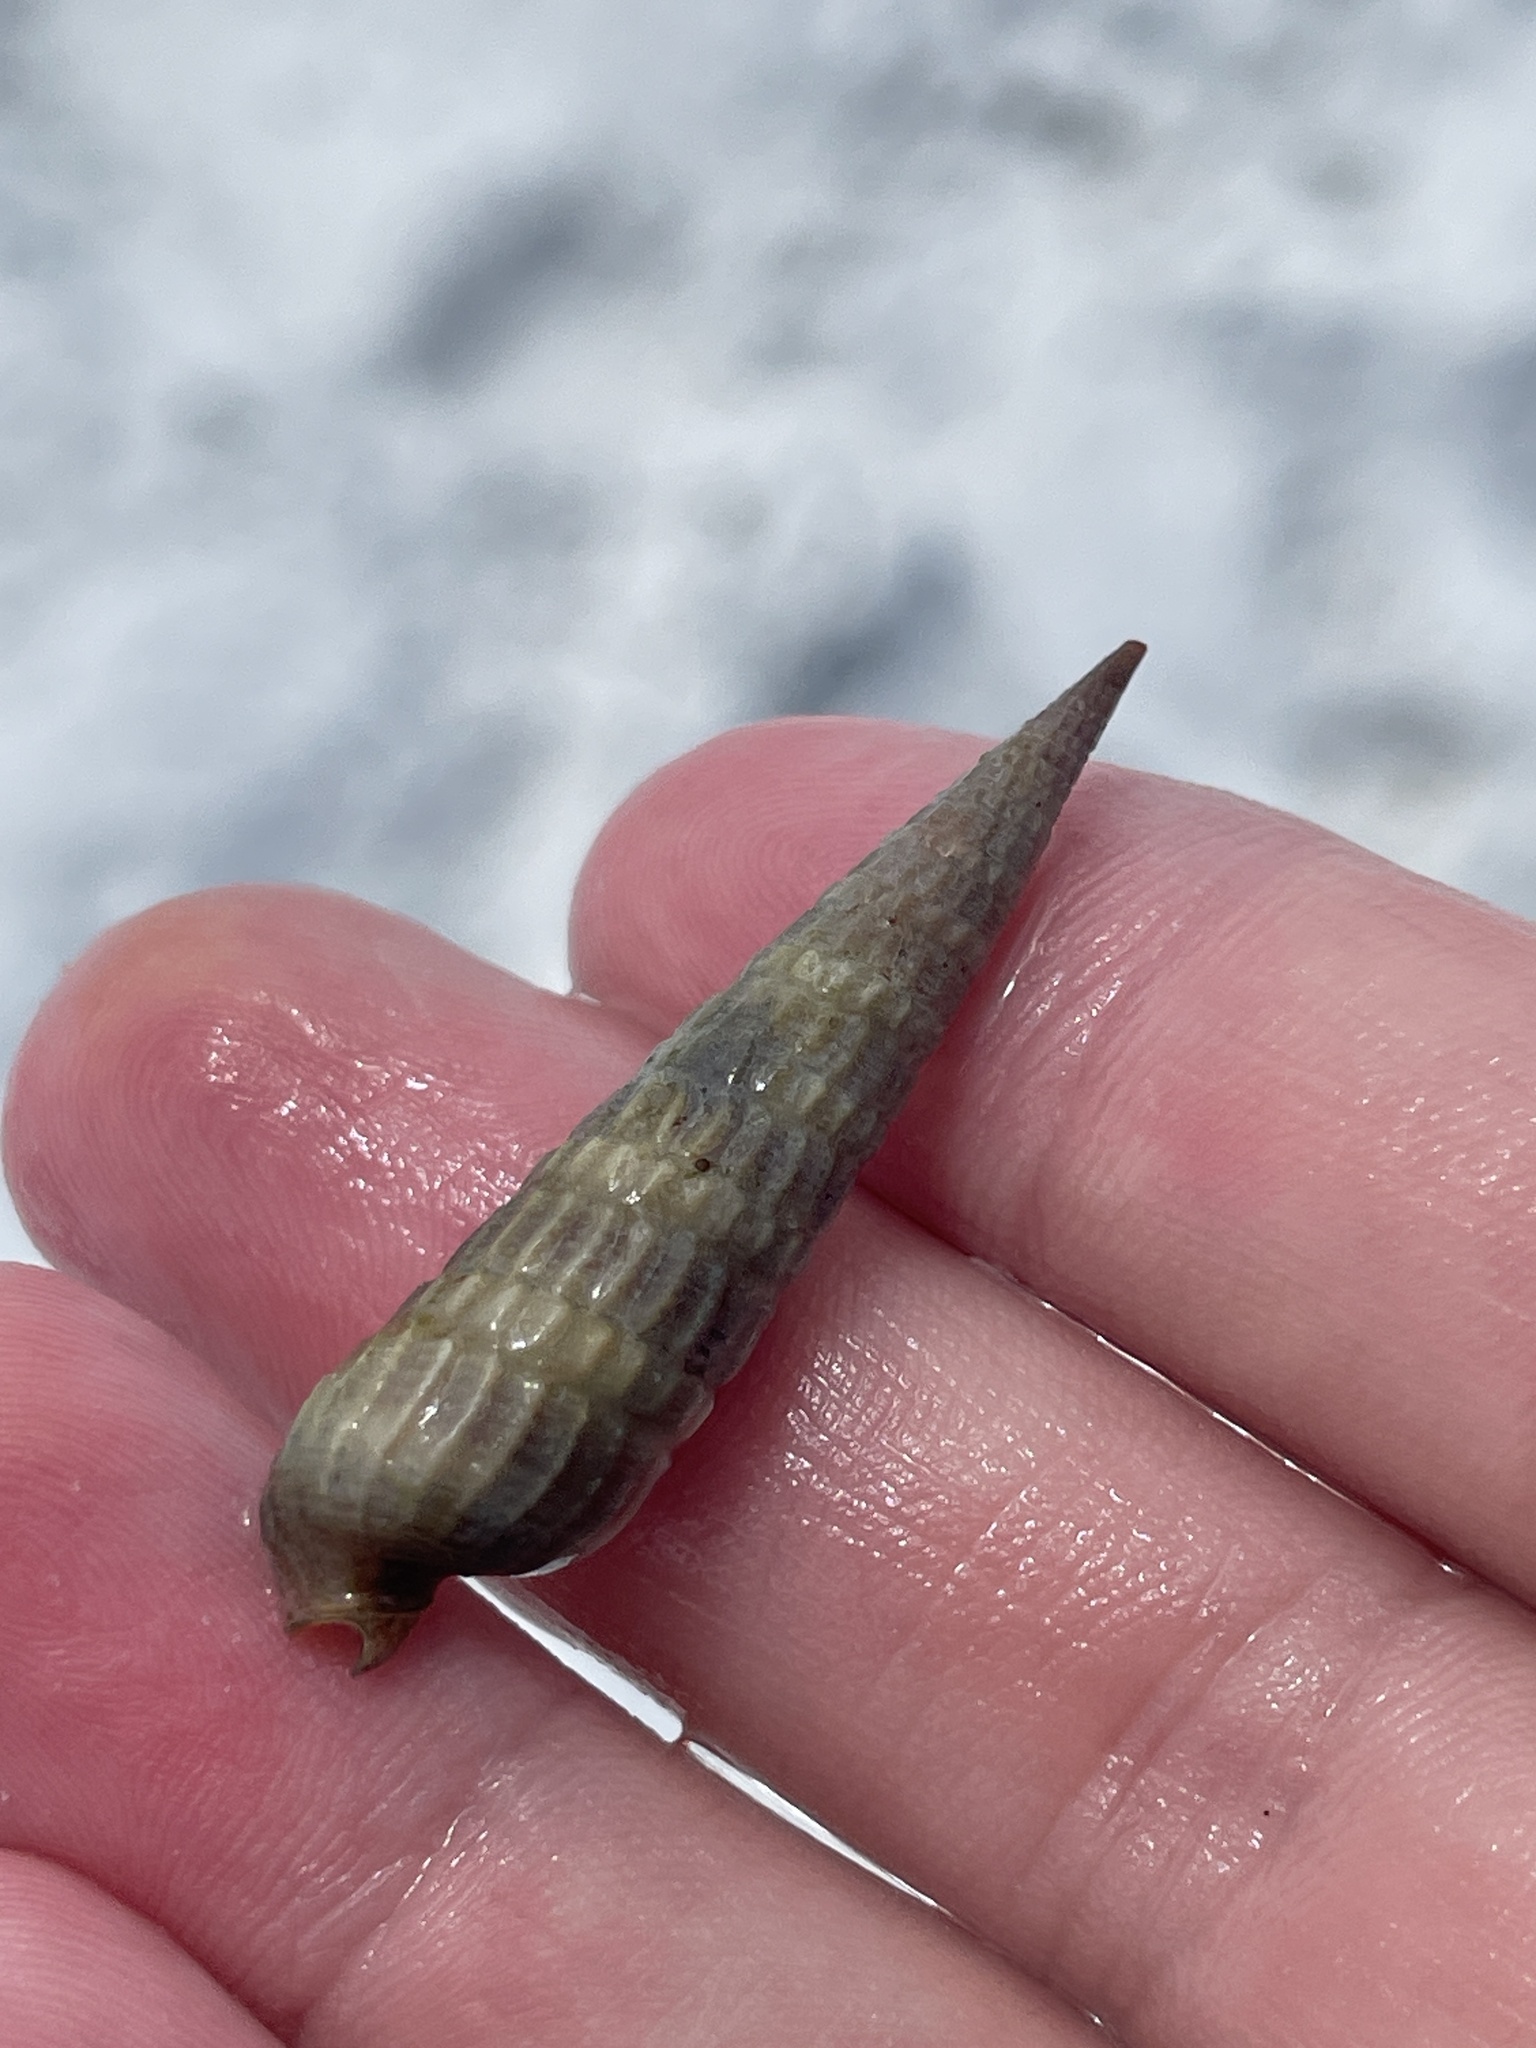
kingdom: Animalia
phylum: Mollusca
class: Gastropoda
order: Neogastropoda
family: Terebridae
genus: Neoterebra
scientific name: Neoterebra dislocata
